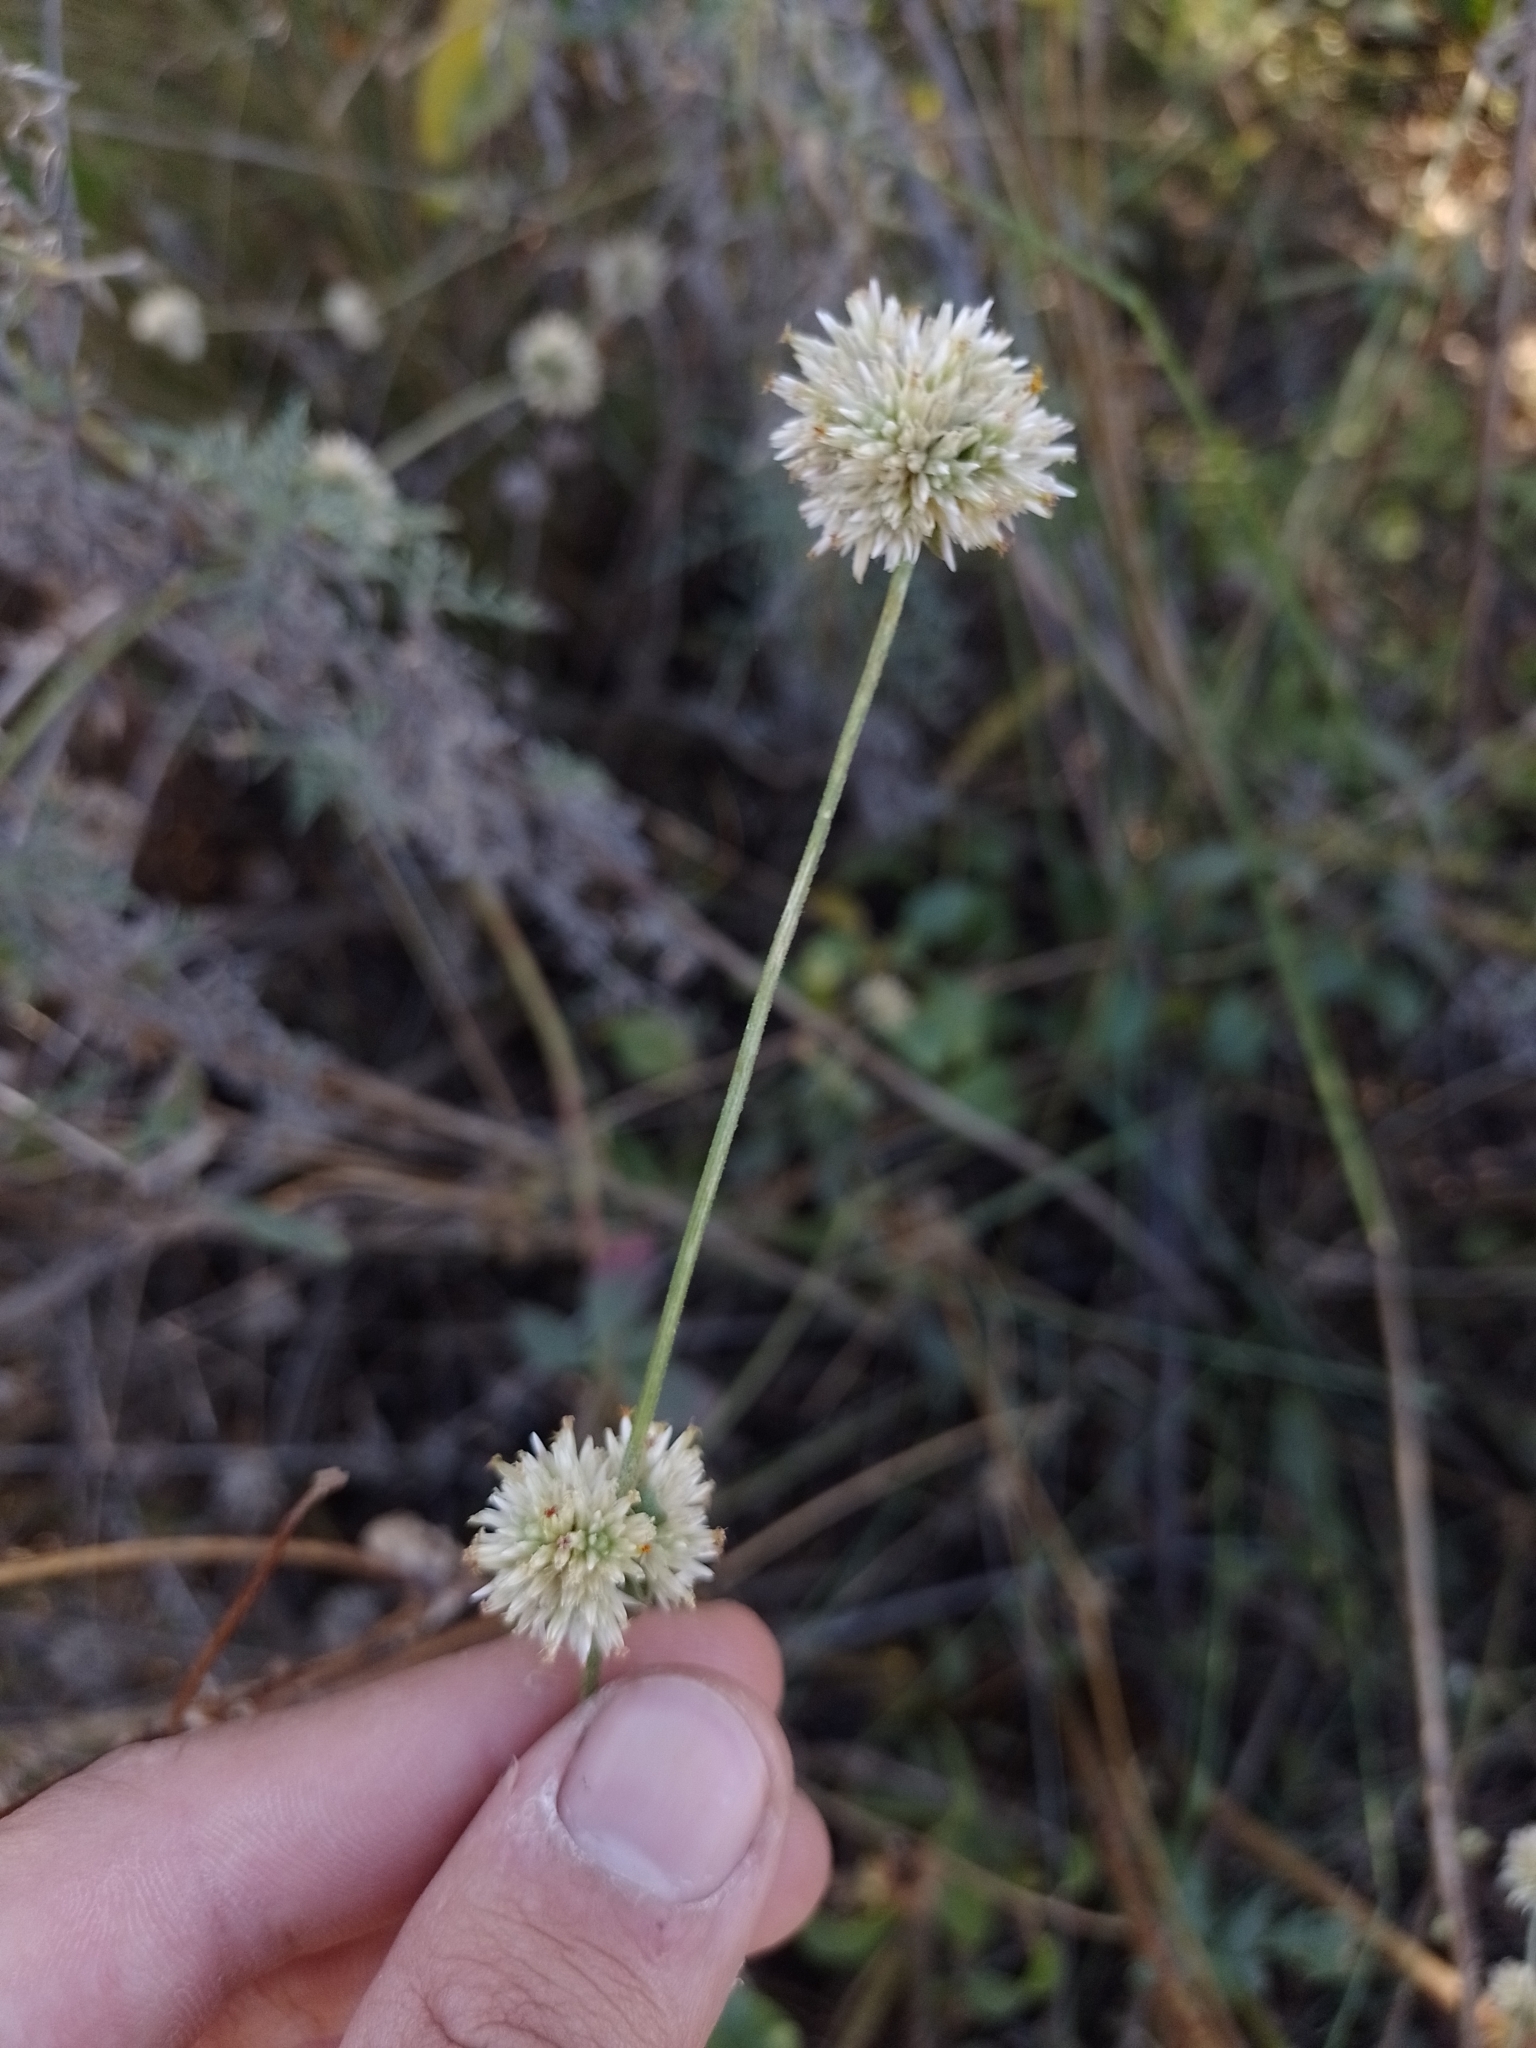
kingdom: Plantae
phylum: Tracheophyta
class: Magnoliopsida
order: Caryophyllales
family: Amaranthaceae
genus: Gomphrena
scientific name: Gomphrena perennis
